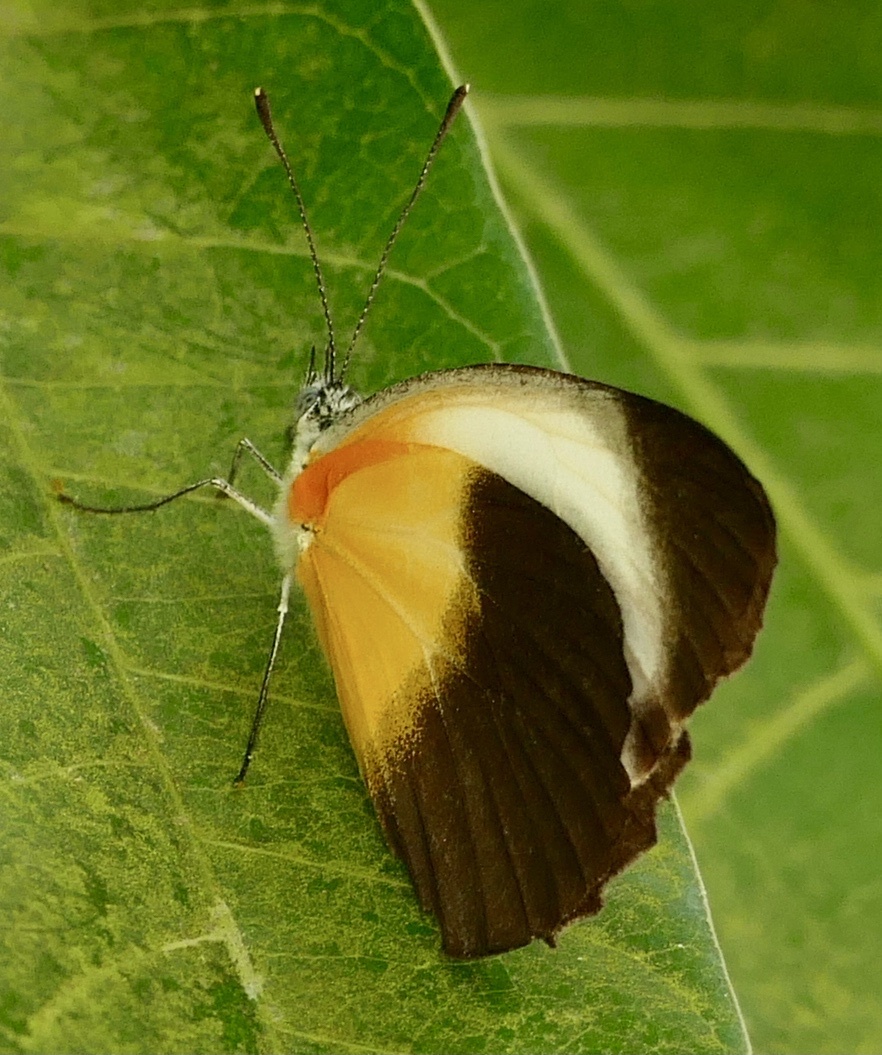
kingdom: Animalia
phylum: Arthropoda
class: Insecta
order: Lepidoptera
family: Pieridae
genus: Mylothris
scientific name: Mylothris chloris
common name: Western dotted border
